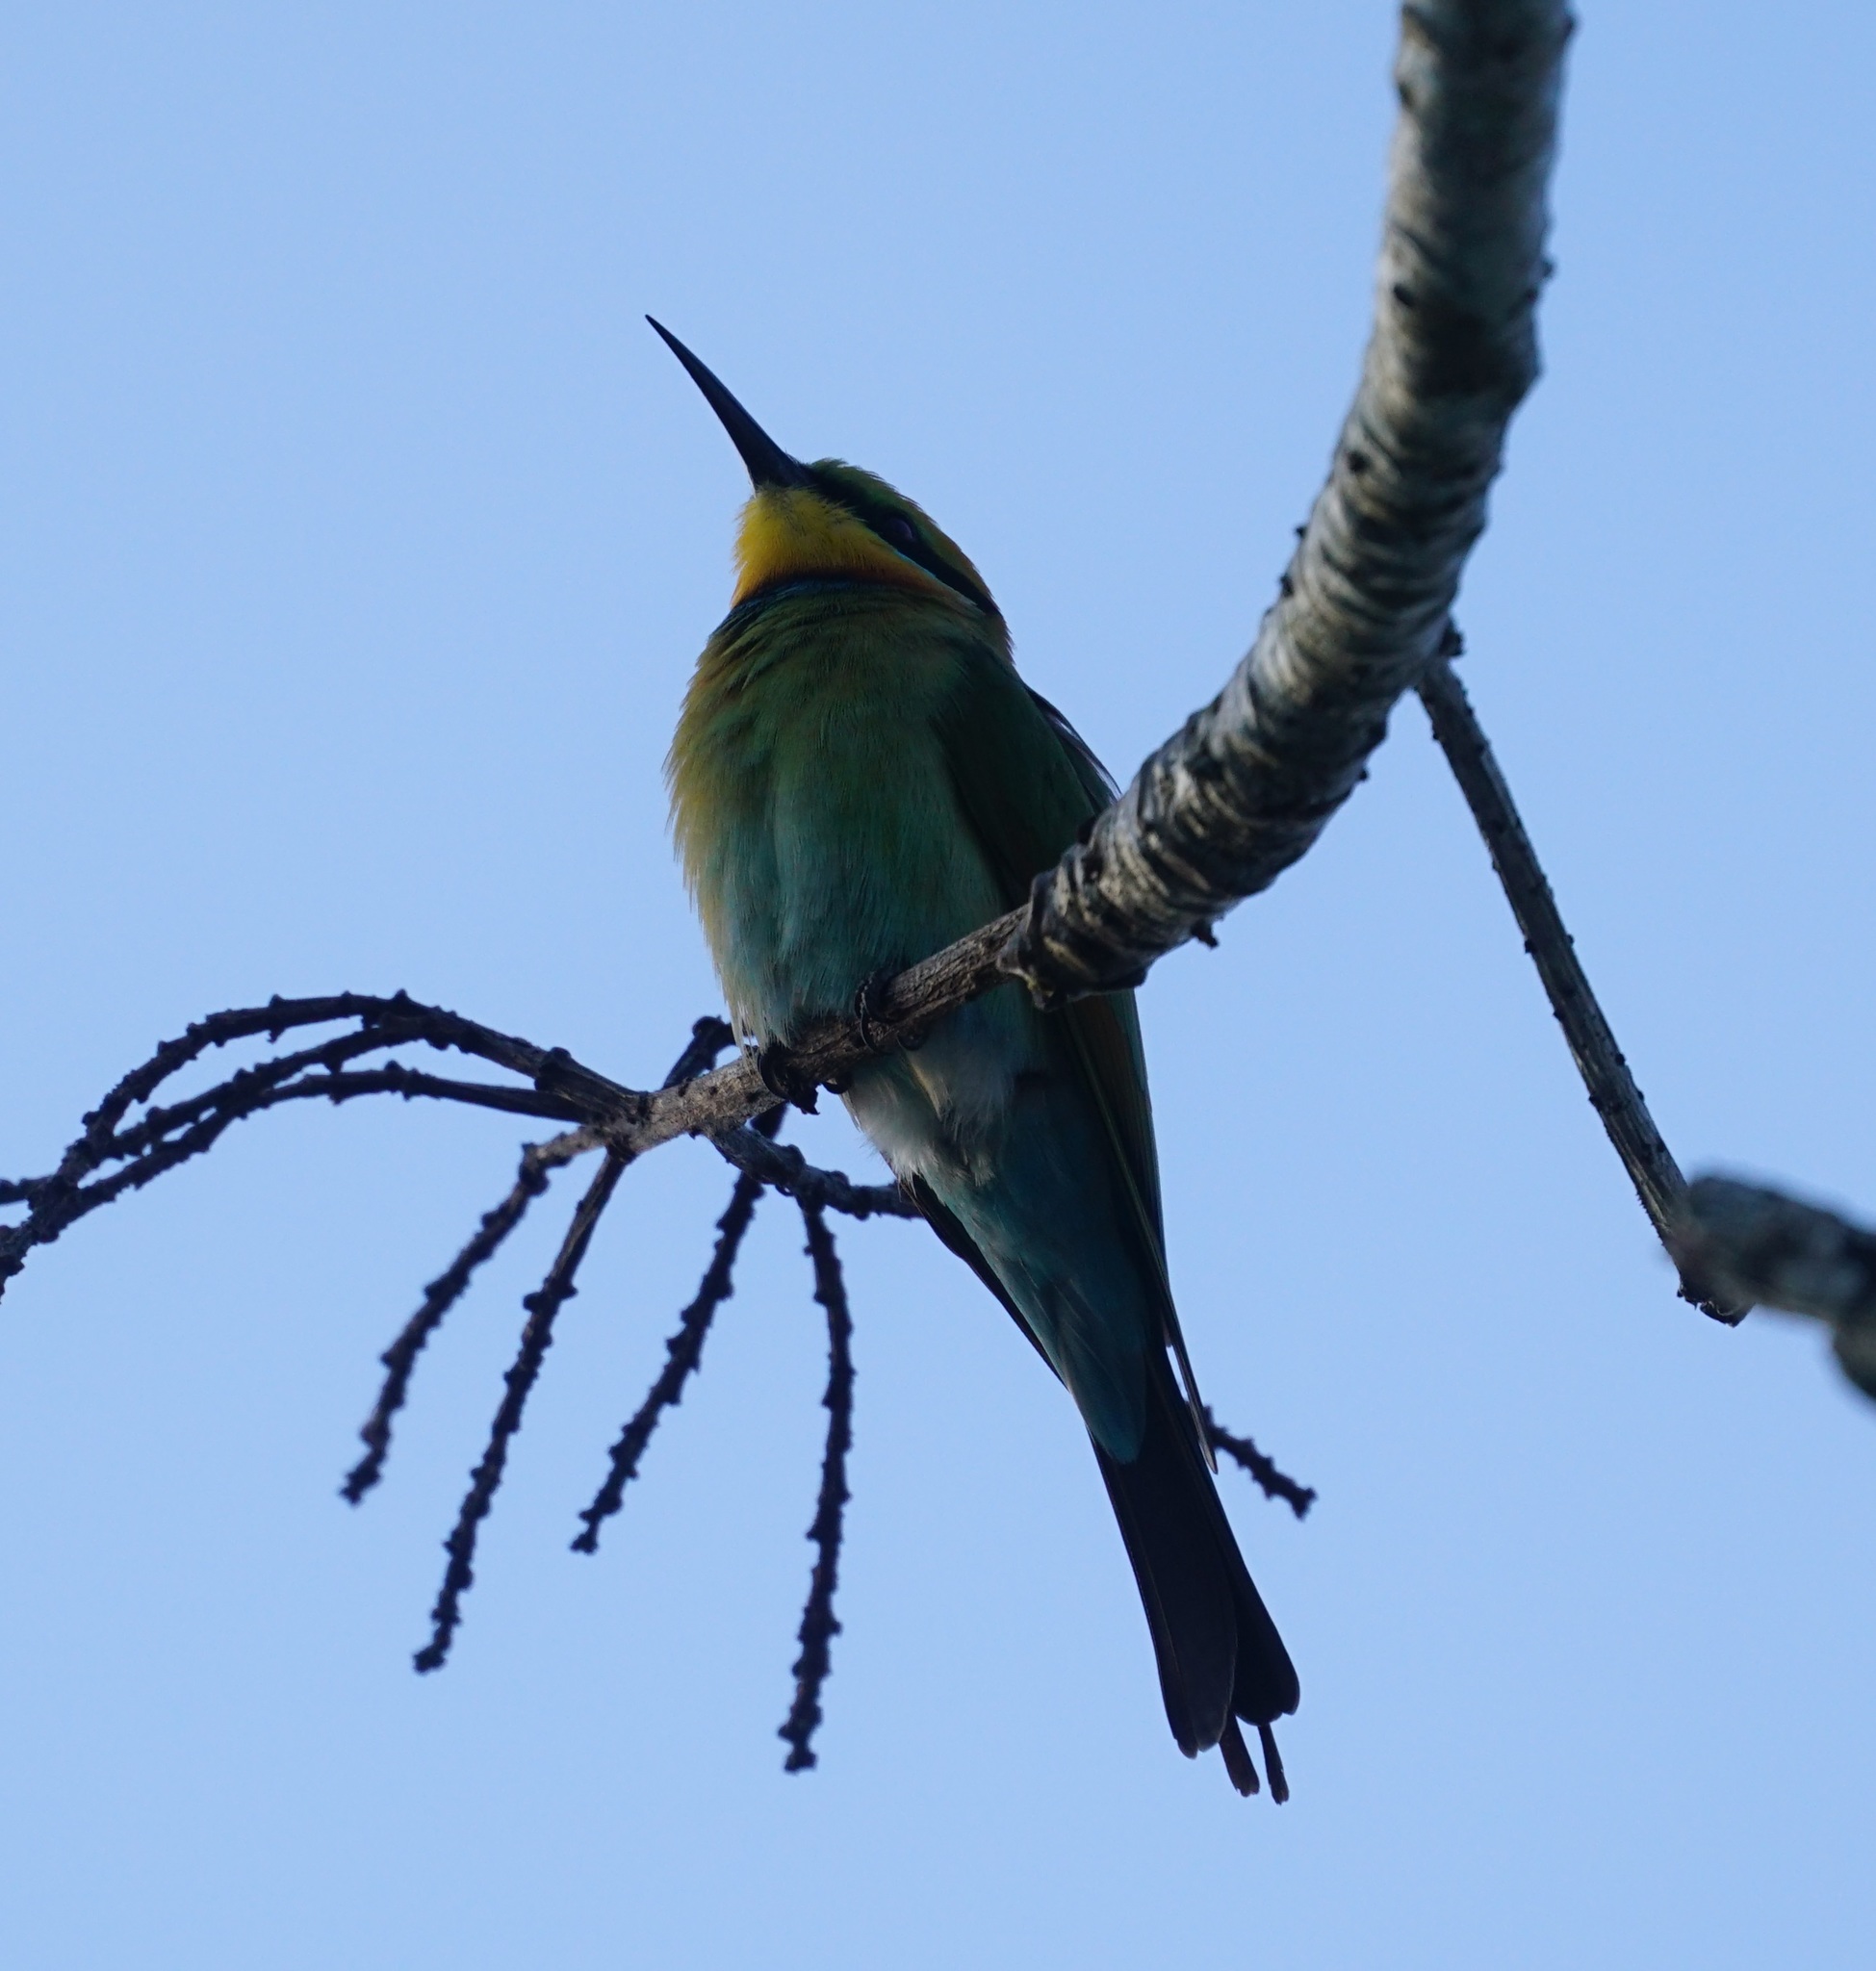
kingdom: Animalia
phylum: Chordata
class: Aves
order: Coraciiformes
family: Meropidae
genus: Merops
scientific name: Merops ornatus
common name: Rainbow bee-eater
